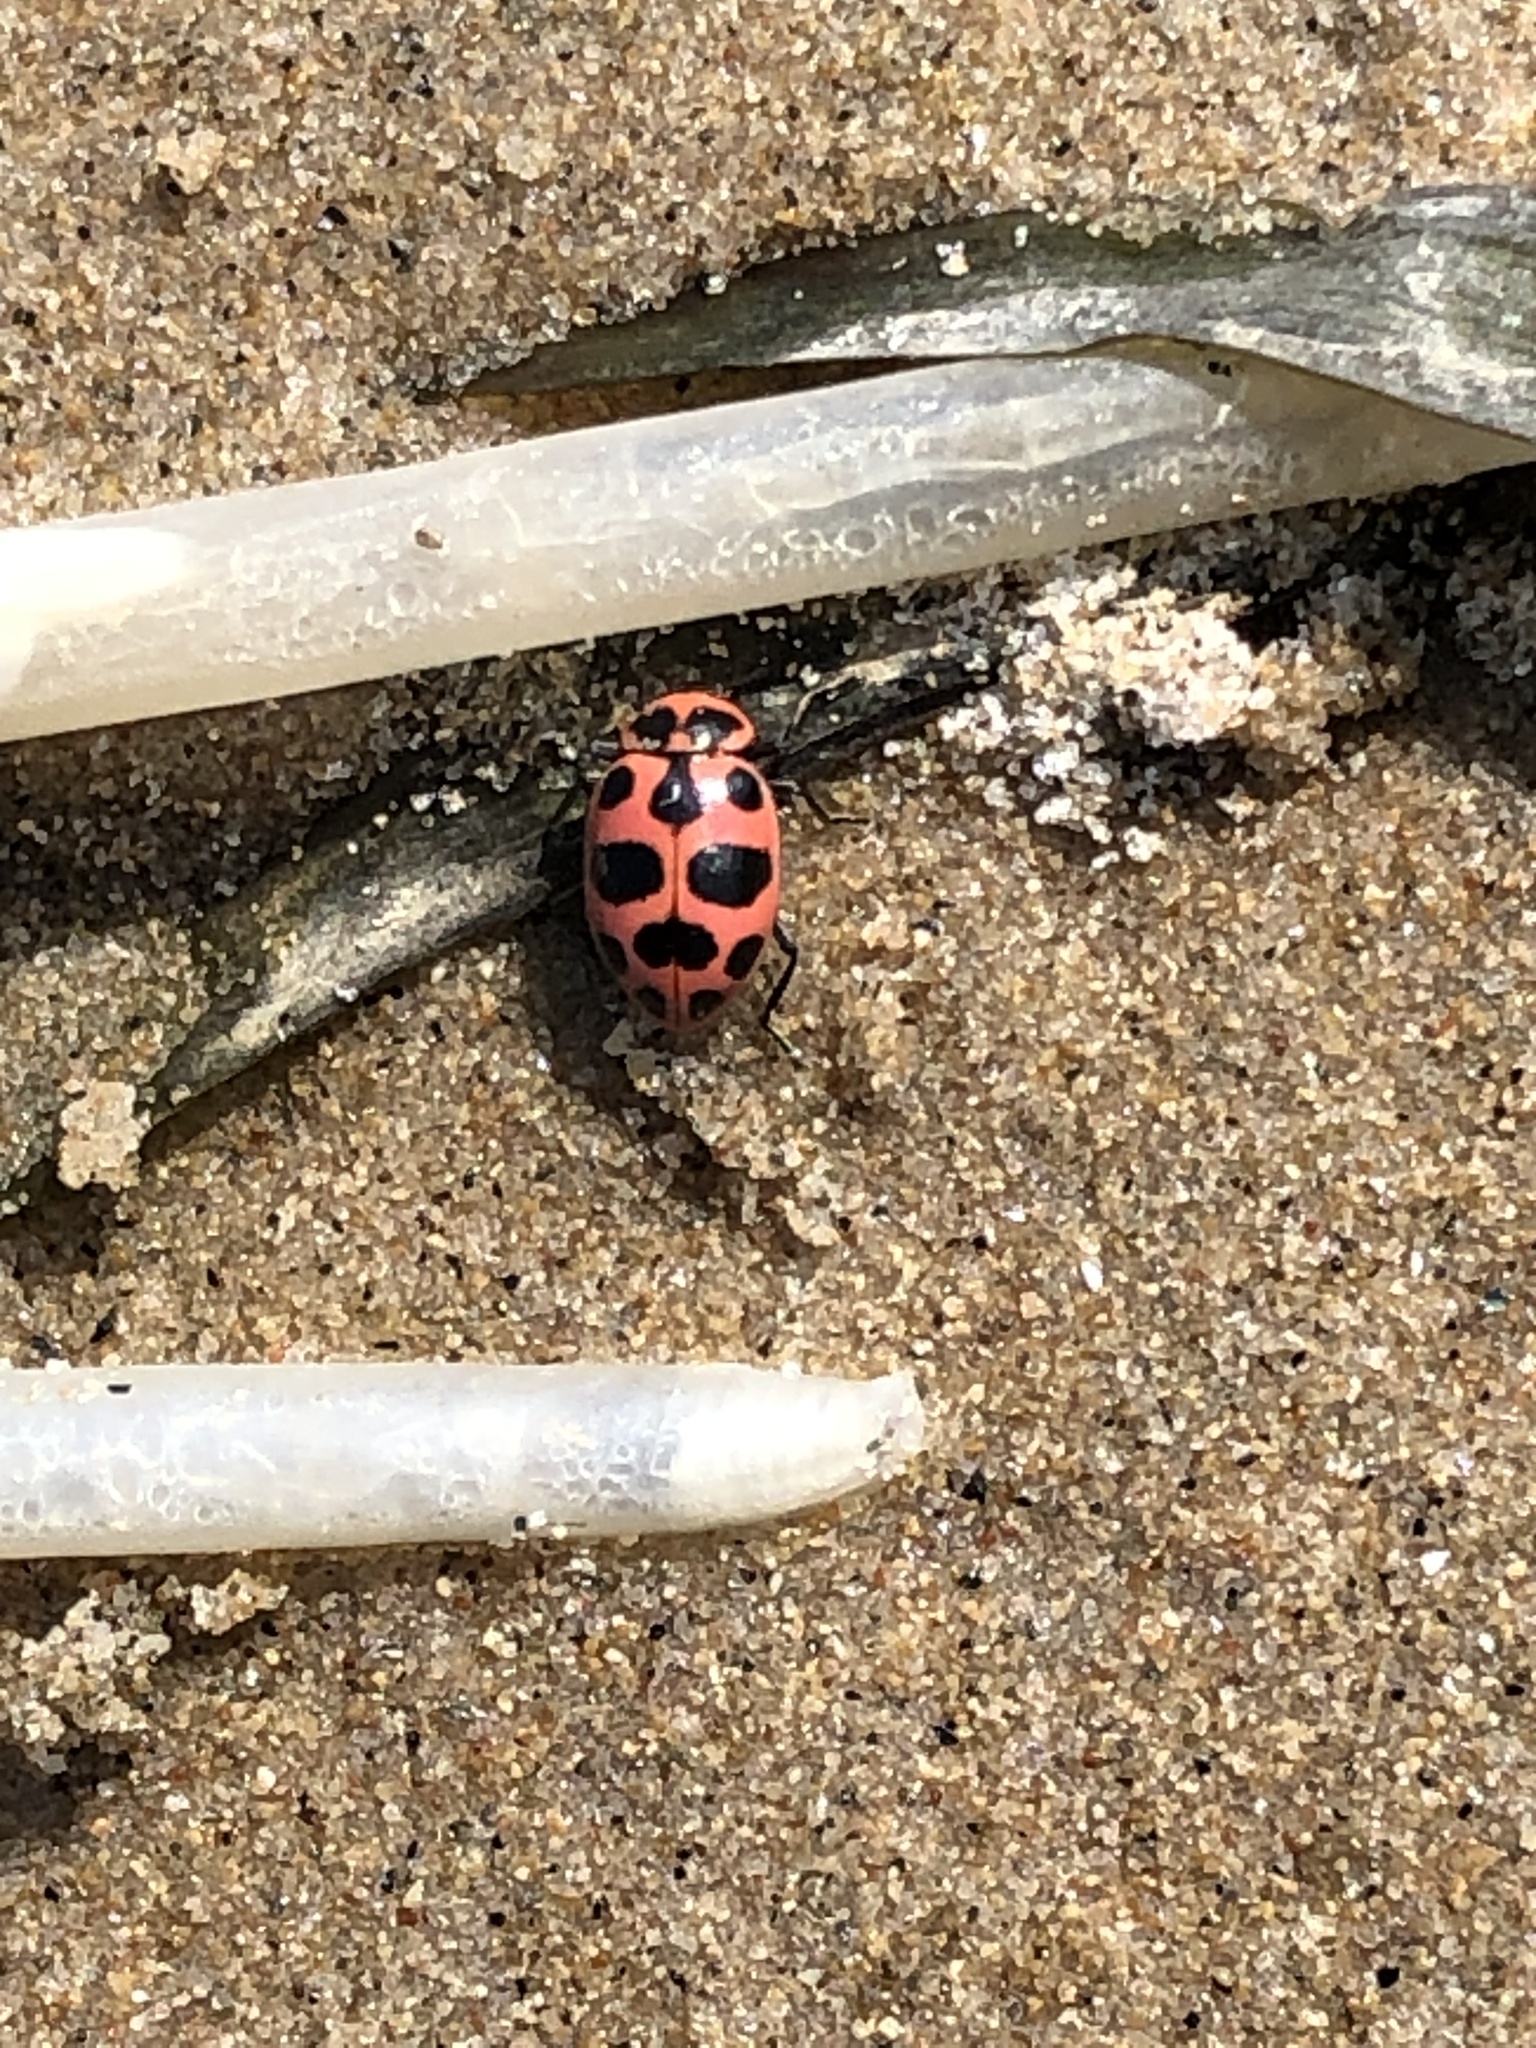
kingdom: Animalia
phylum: Arthropoda
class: Insecta
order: Coleoptera
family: Coccinellidae
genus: Coleomegilla
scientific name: Coleomegilla maculata
